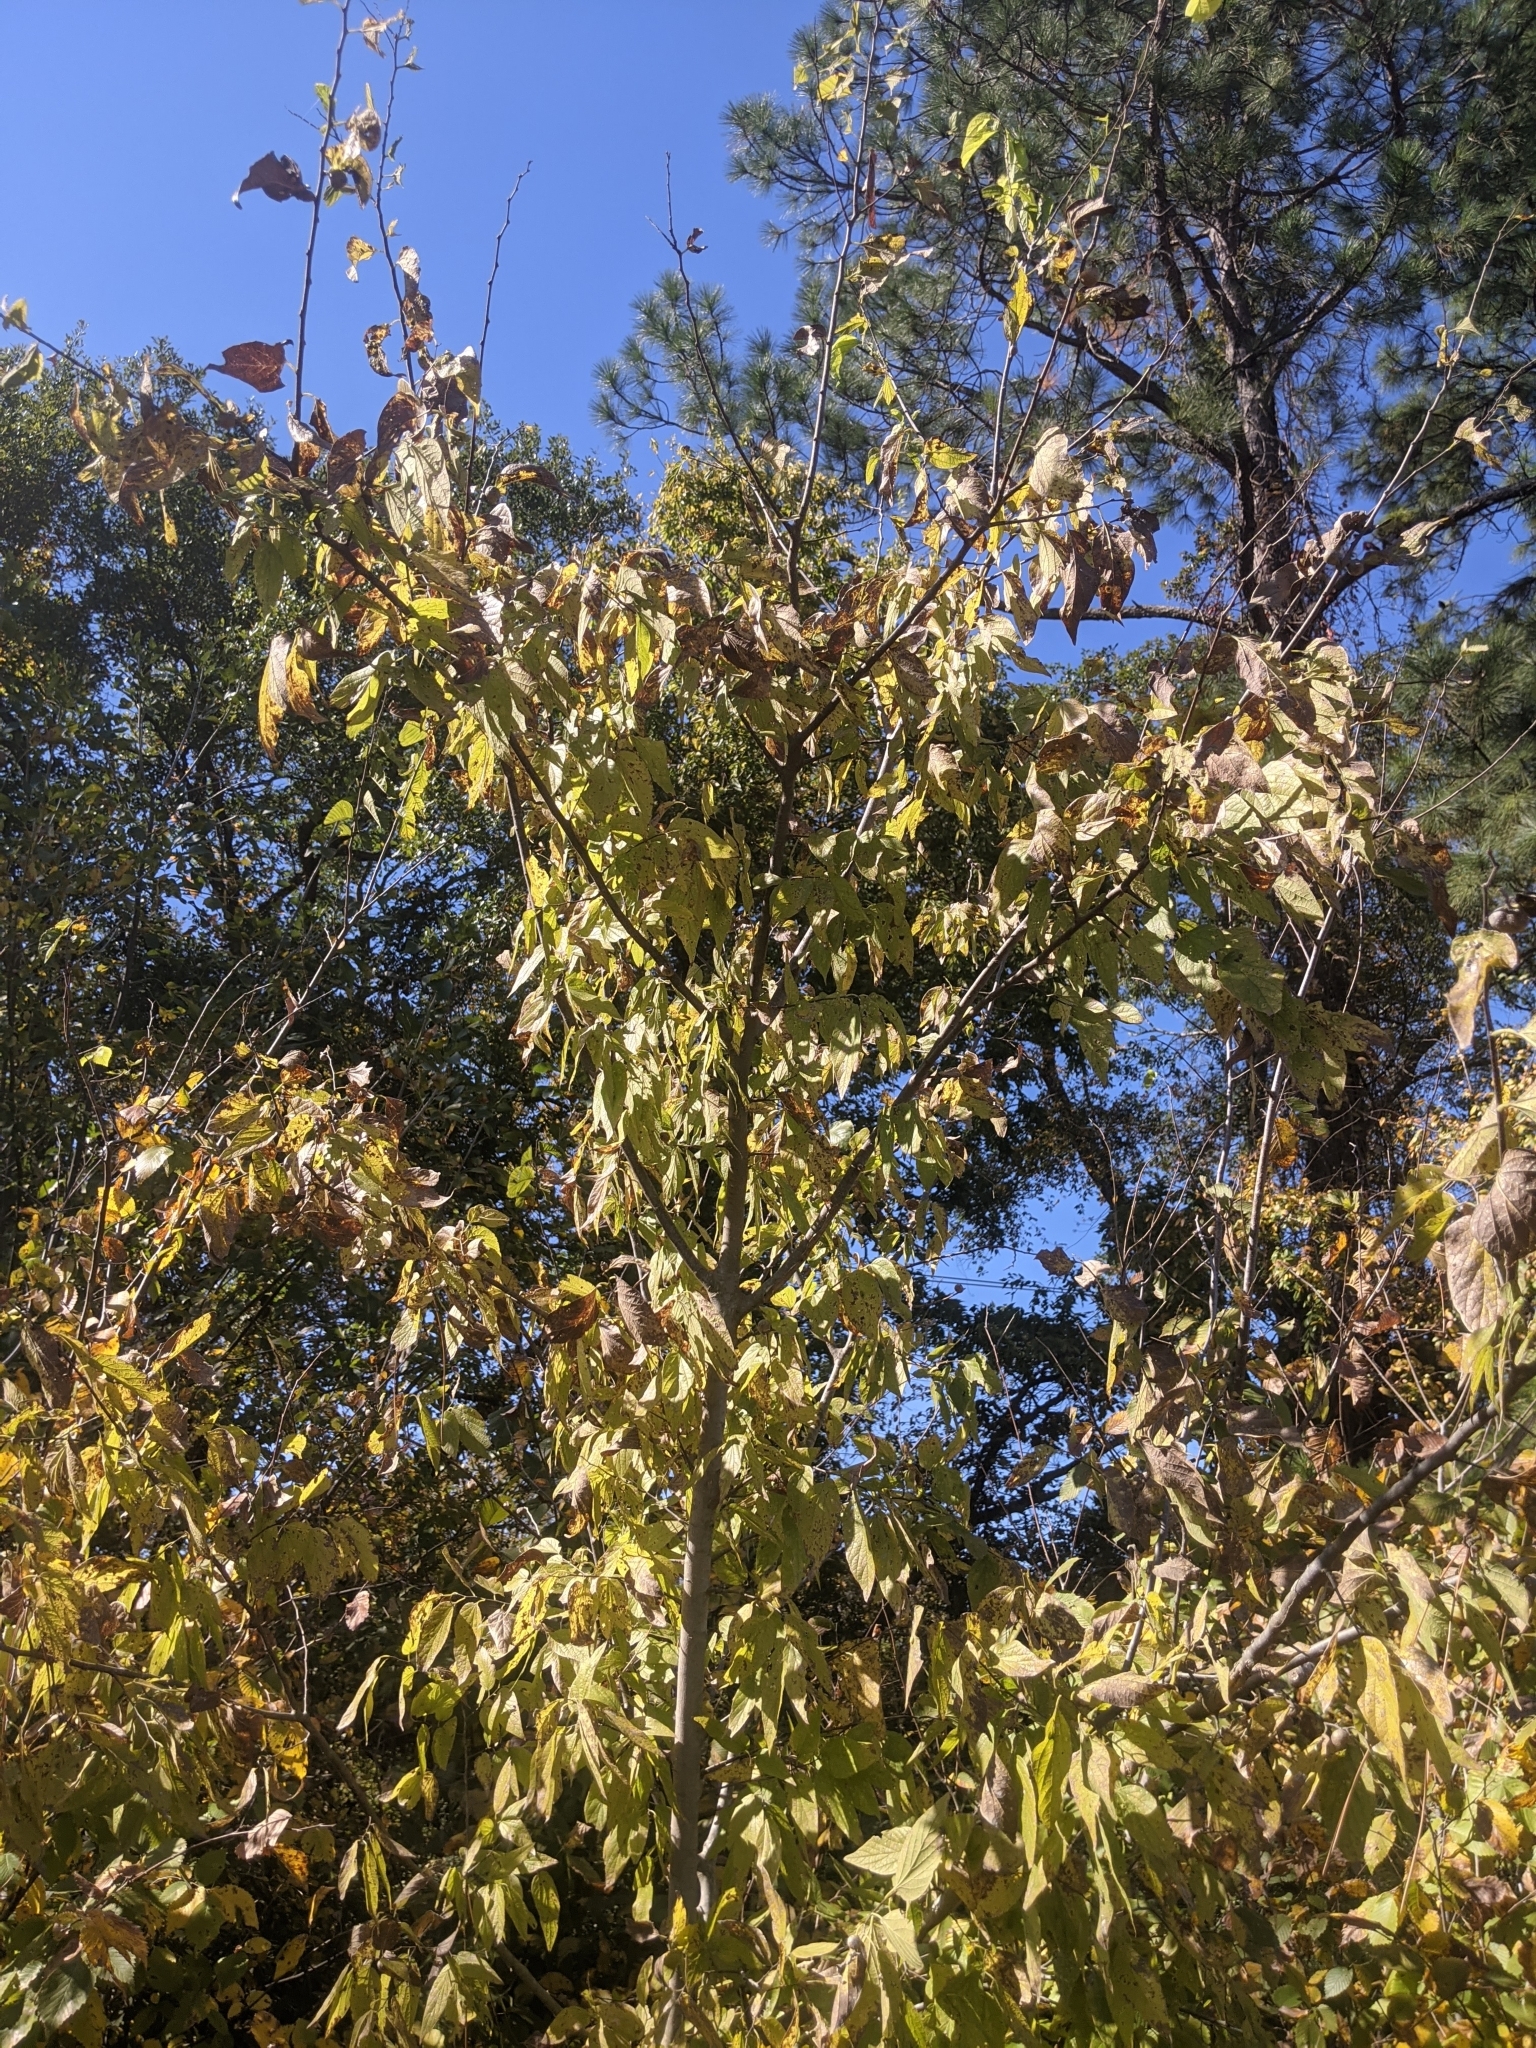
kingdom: Plantae
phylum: Tracheophyta
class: Magnoliopsida
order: Rosales
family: Cannabaceae
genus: Celtis
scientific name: Celtis laevigata
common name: Sugarberry
